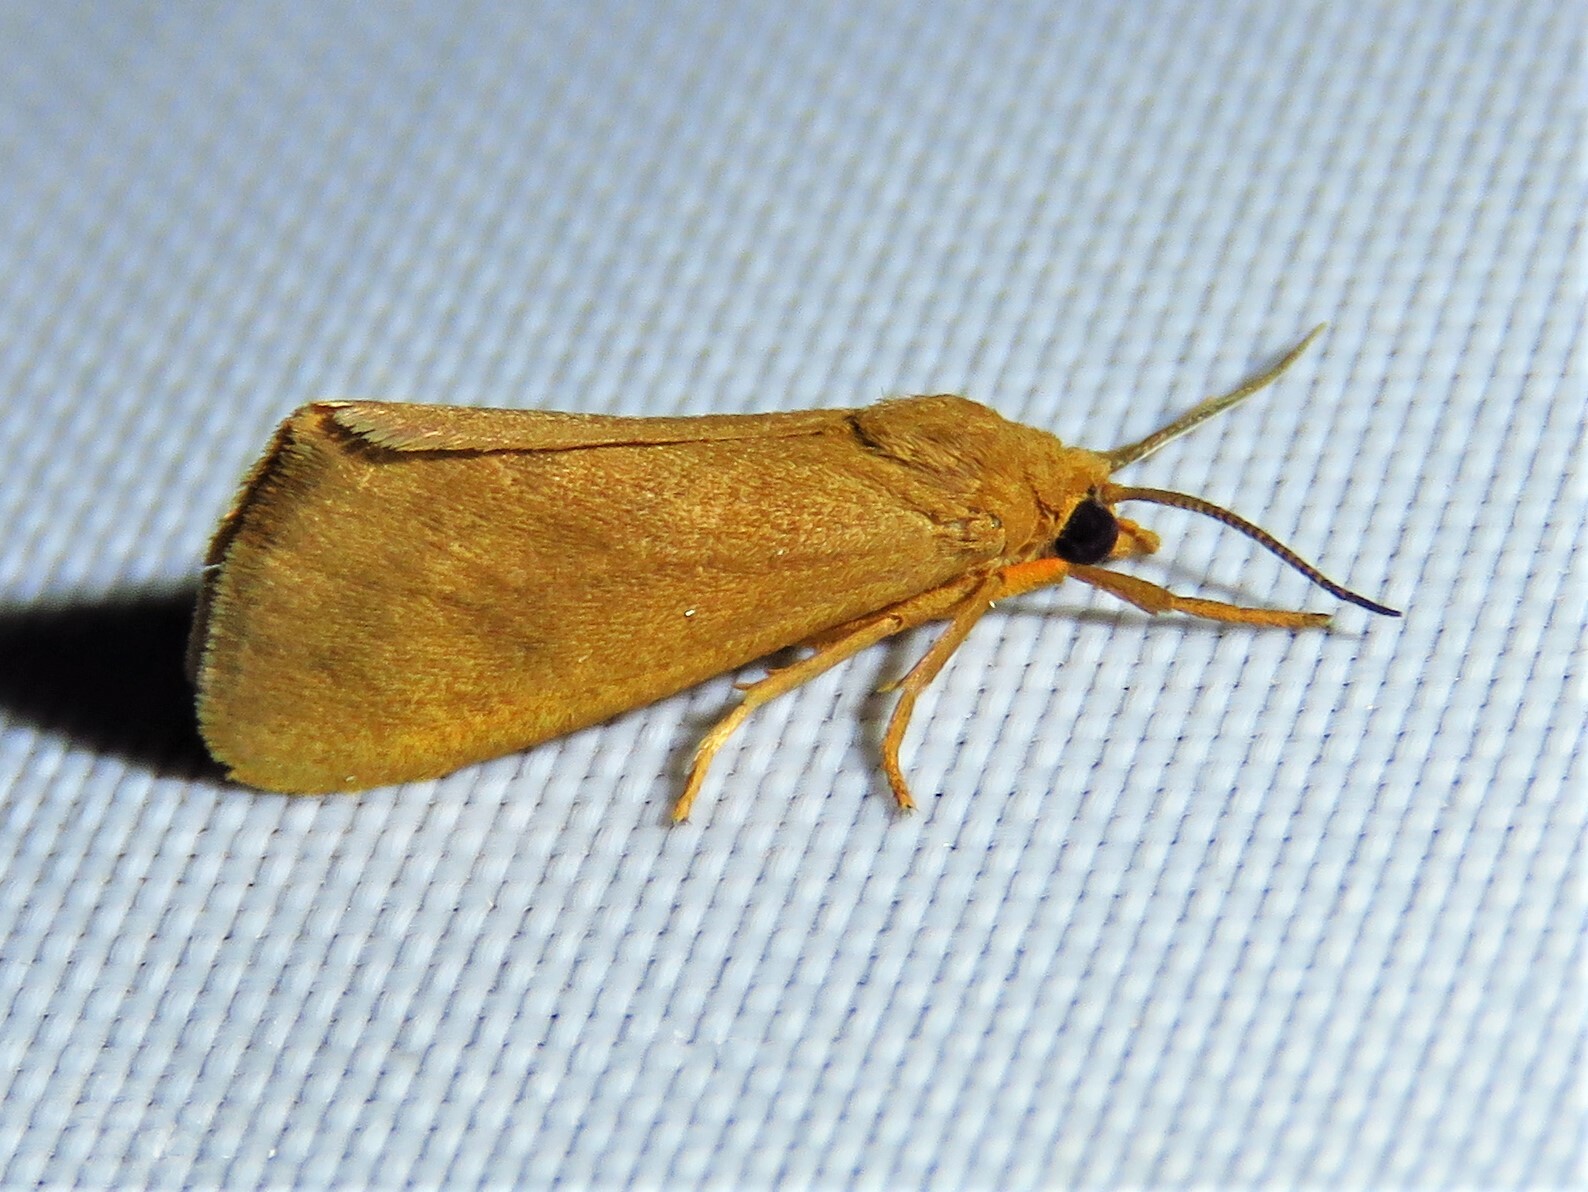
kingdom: Animalia
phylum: Arthropoda
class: Insecta
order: Lepidoptera
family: Erebidae
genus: Virbia
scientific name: Virbia aurantiaca
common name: Orange virbia moth
